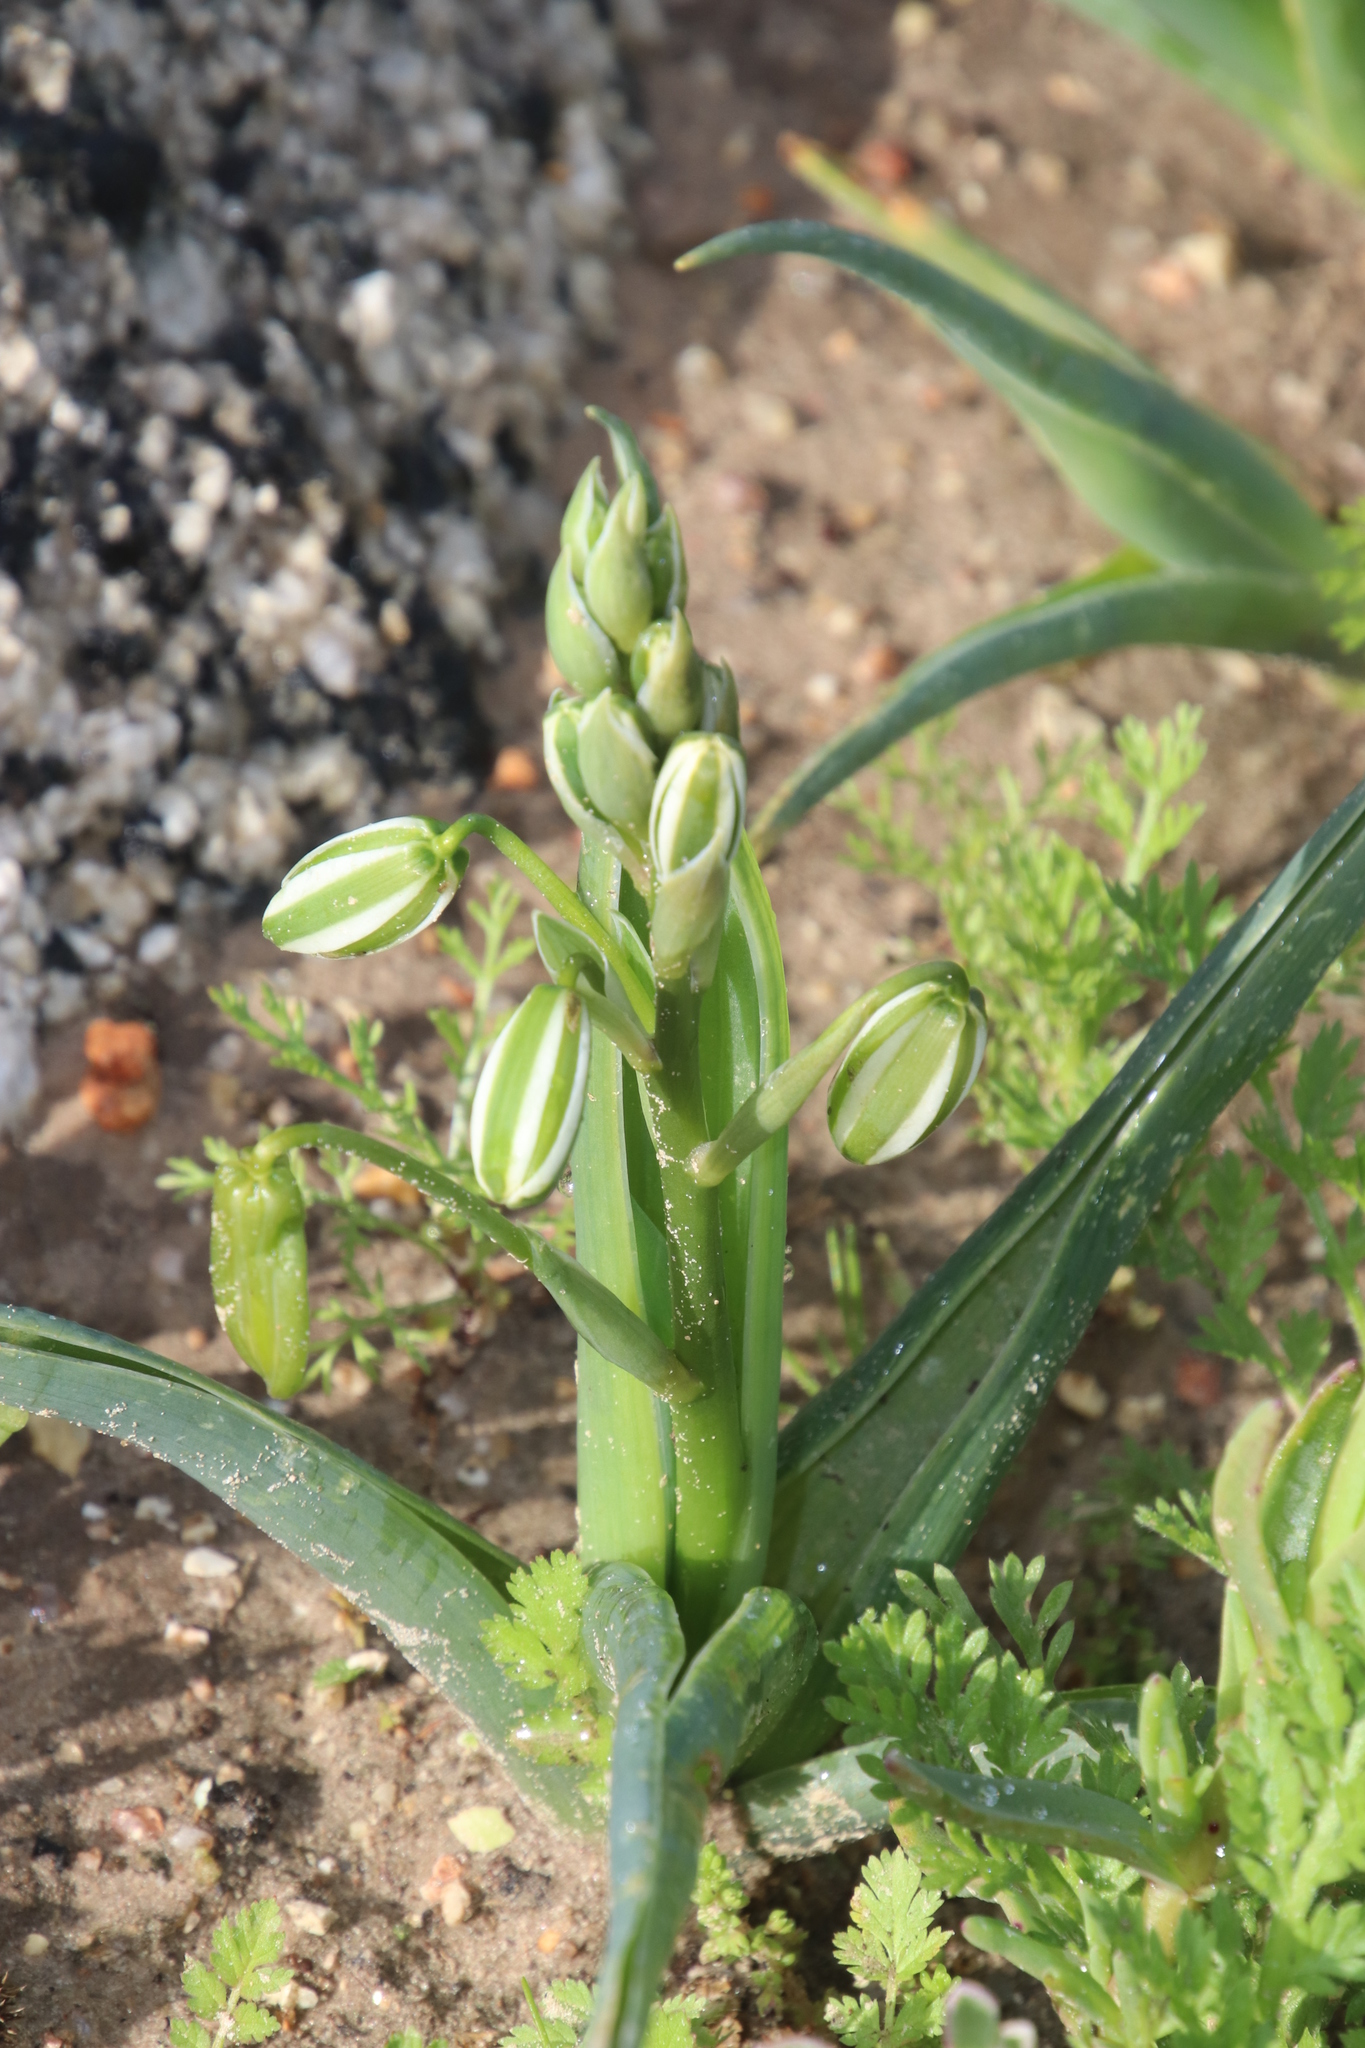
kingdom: Plantae
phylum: Tracheophyta
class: Liliopsida
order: Asparagales
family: Asparagaceae
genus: Albuca
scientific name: Albuca flaccida
